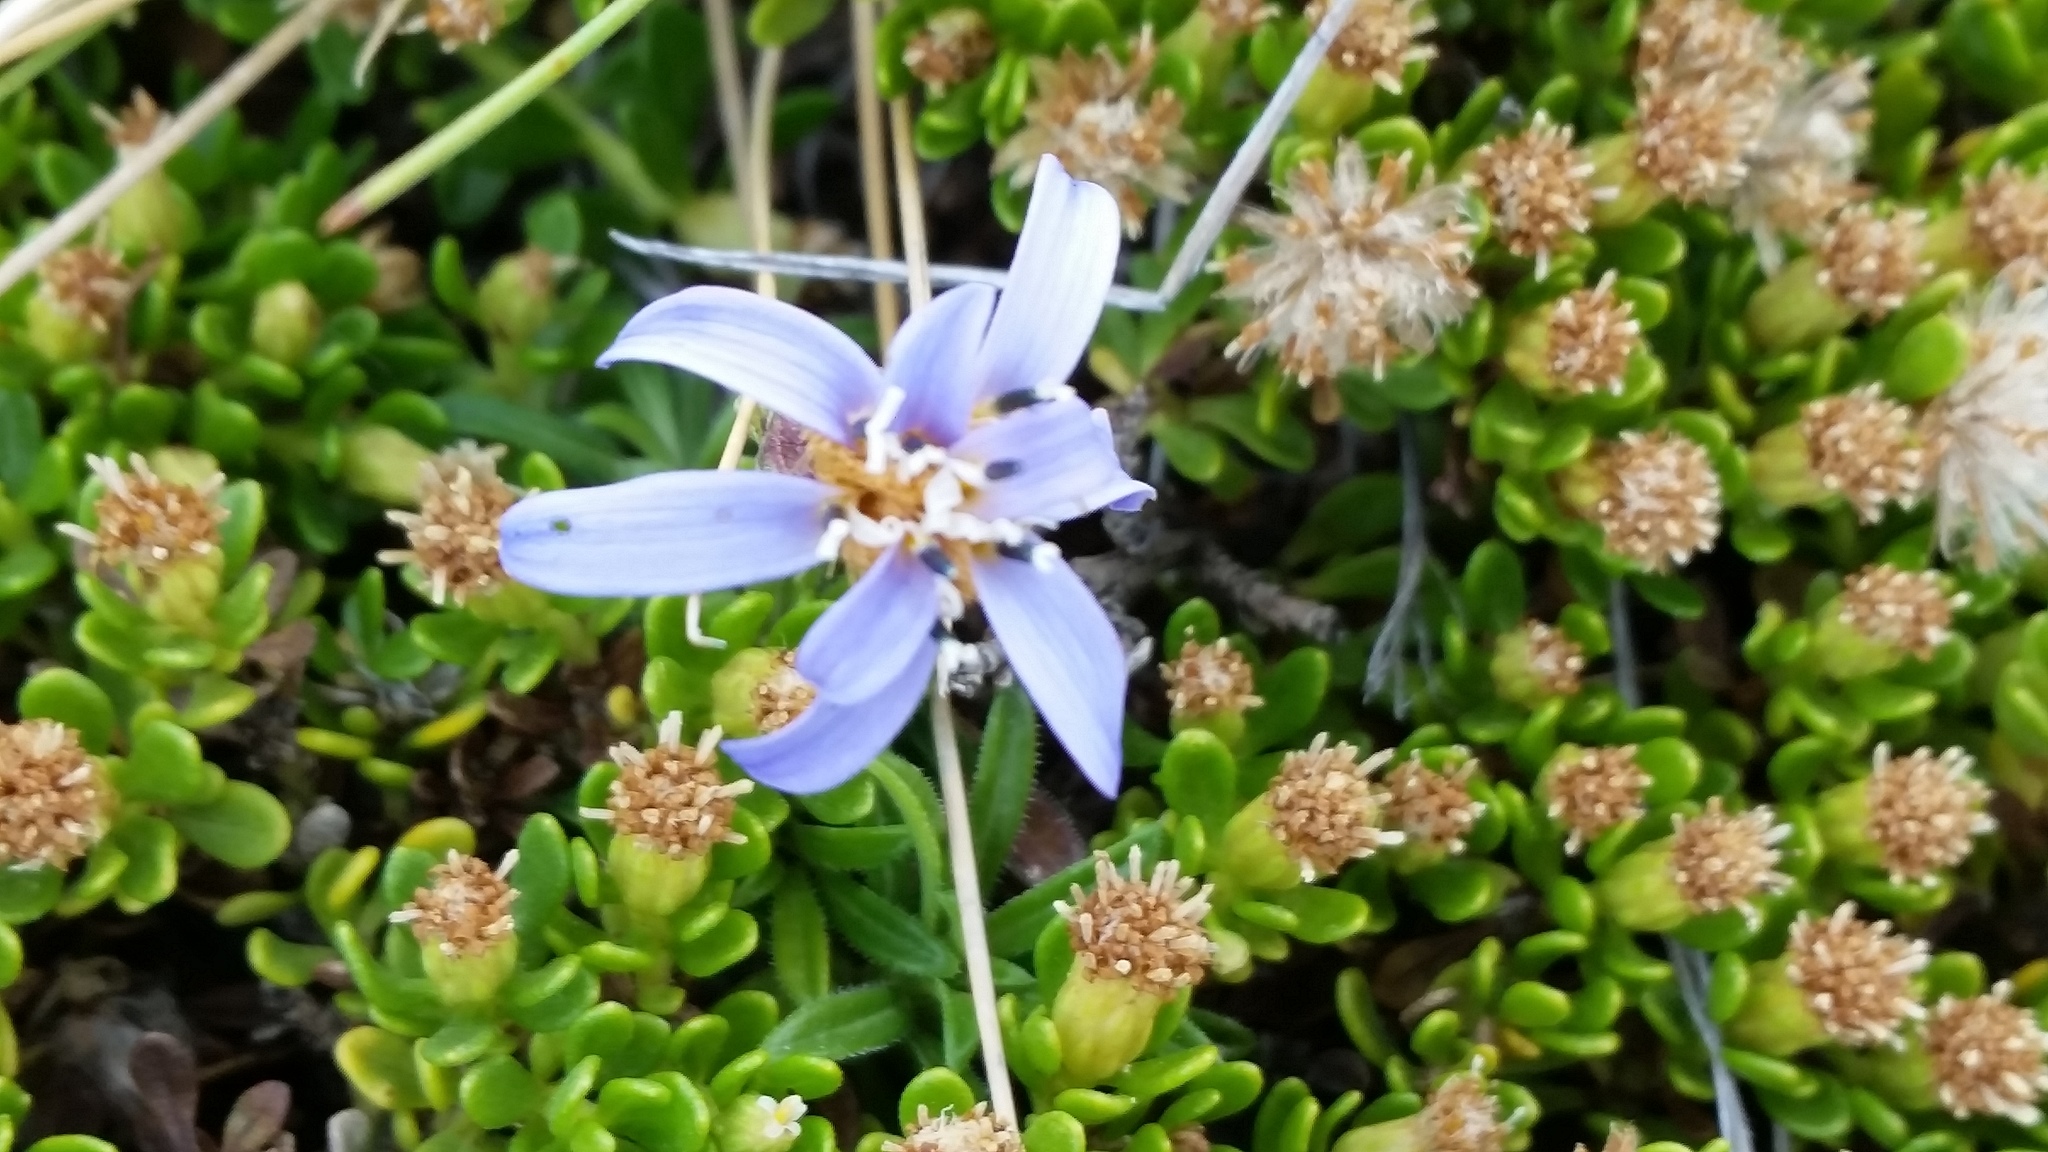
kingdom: Plantae
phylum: Tracheophyta
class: Magnoliopsida
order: Asterales
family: Asteraceae
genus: Perezia
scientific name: Perezia recurvata
